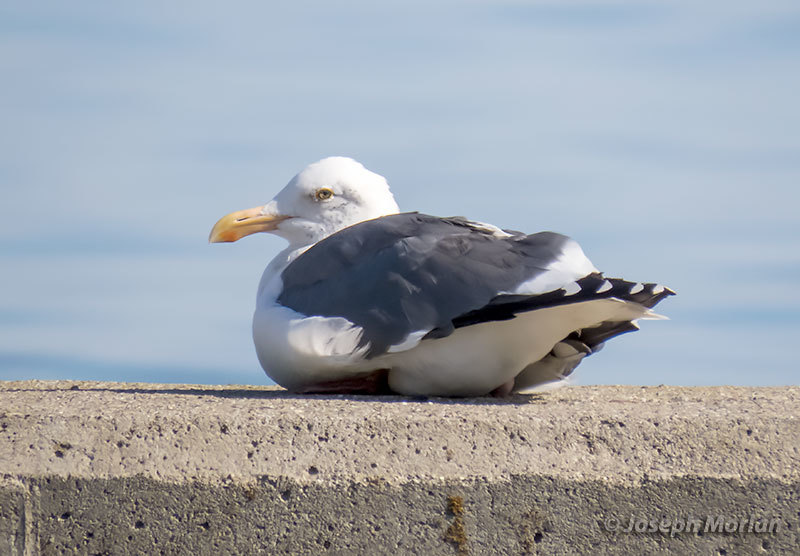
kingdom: Animalia
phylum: Chordata
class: Aves
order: Charadriiformes
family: Laridae
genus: Larus
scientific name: Larus occidentalis
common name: Western gull
